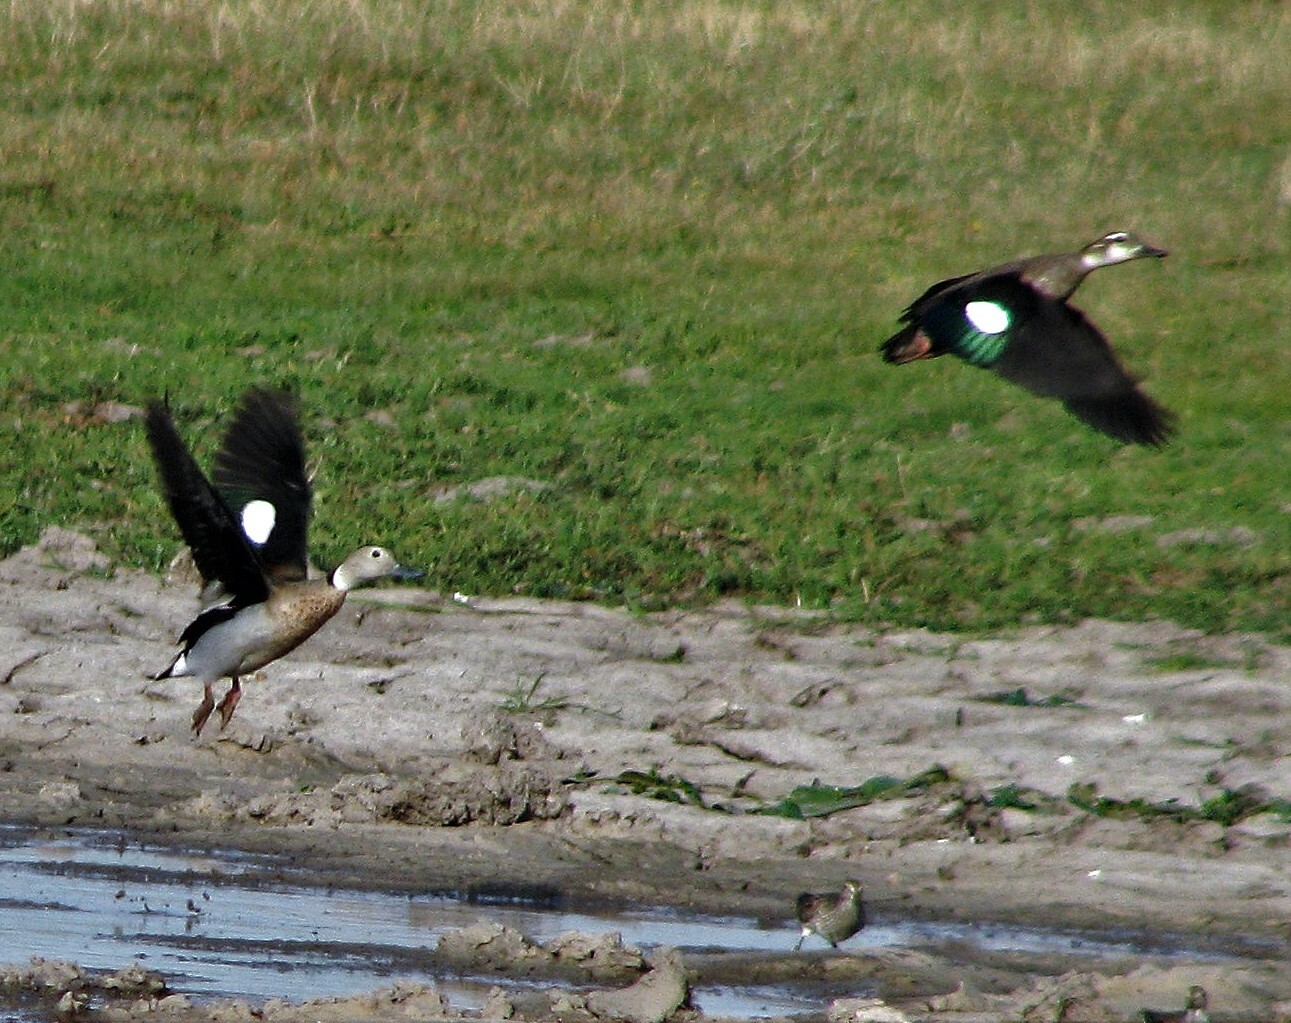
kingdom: Animalia
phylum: Chordata
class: Aves
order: Anseriformes
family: Anatidae
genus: Callonetta
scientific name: Callonetta leucophrys
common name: Ringed teal
